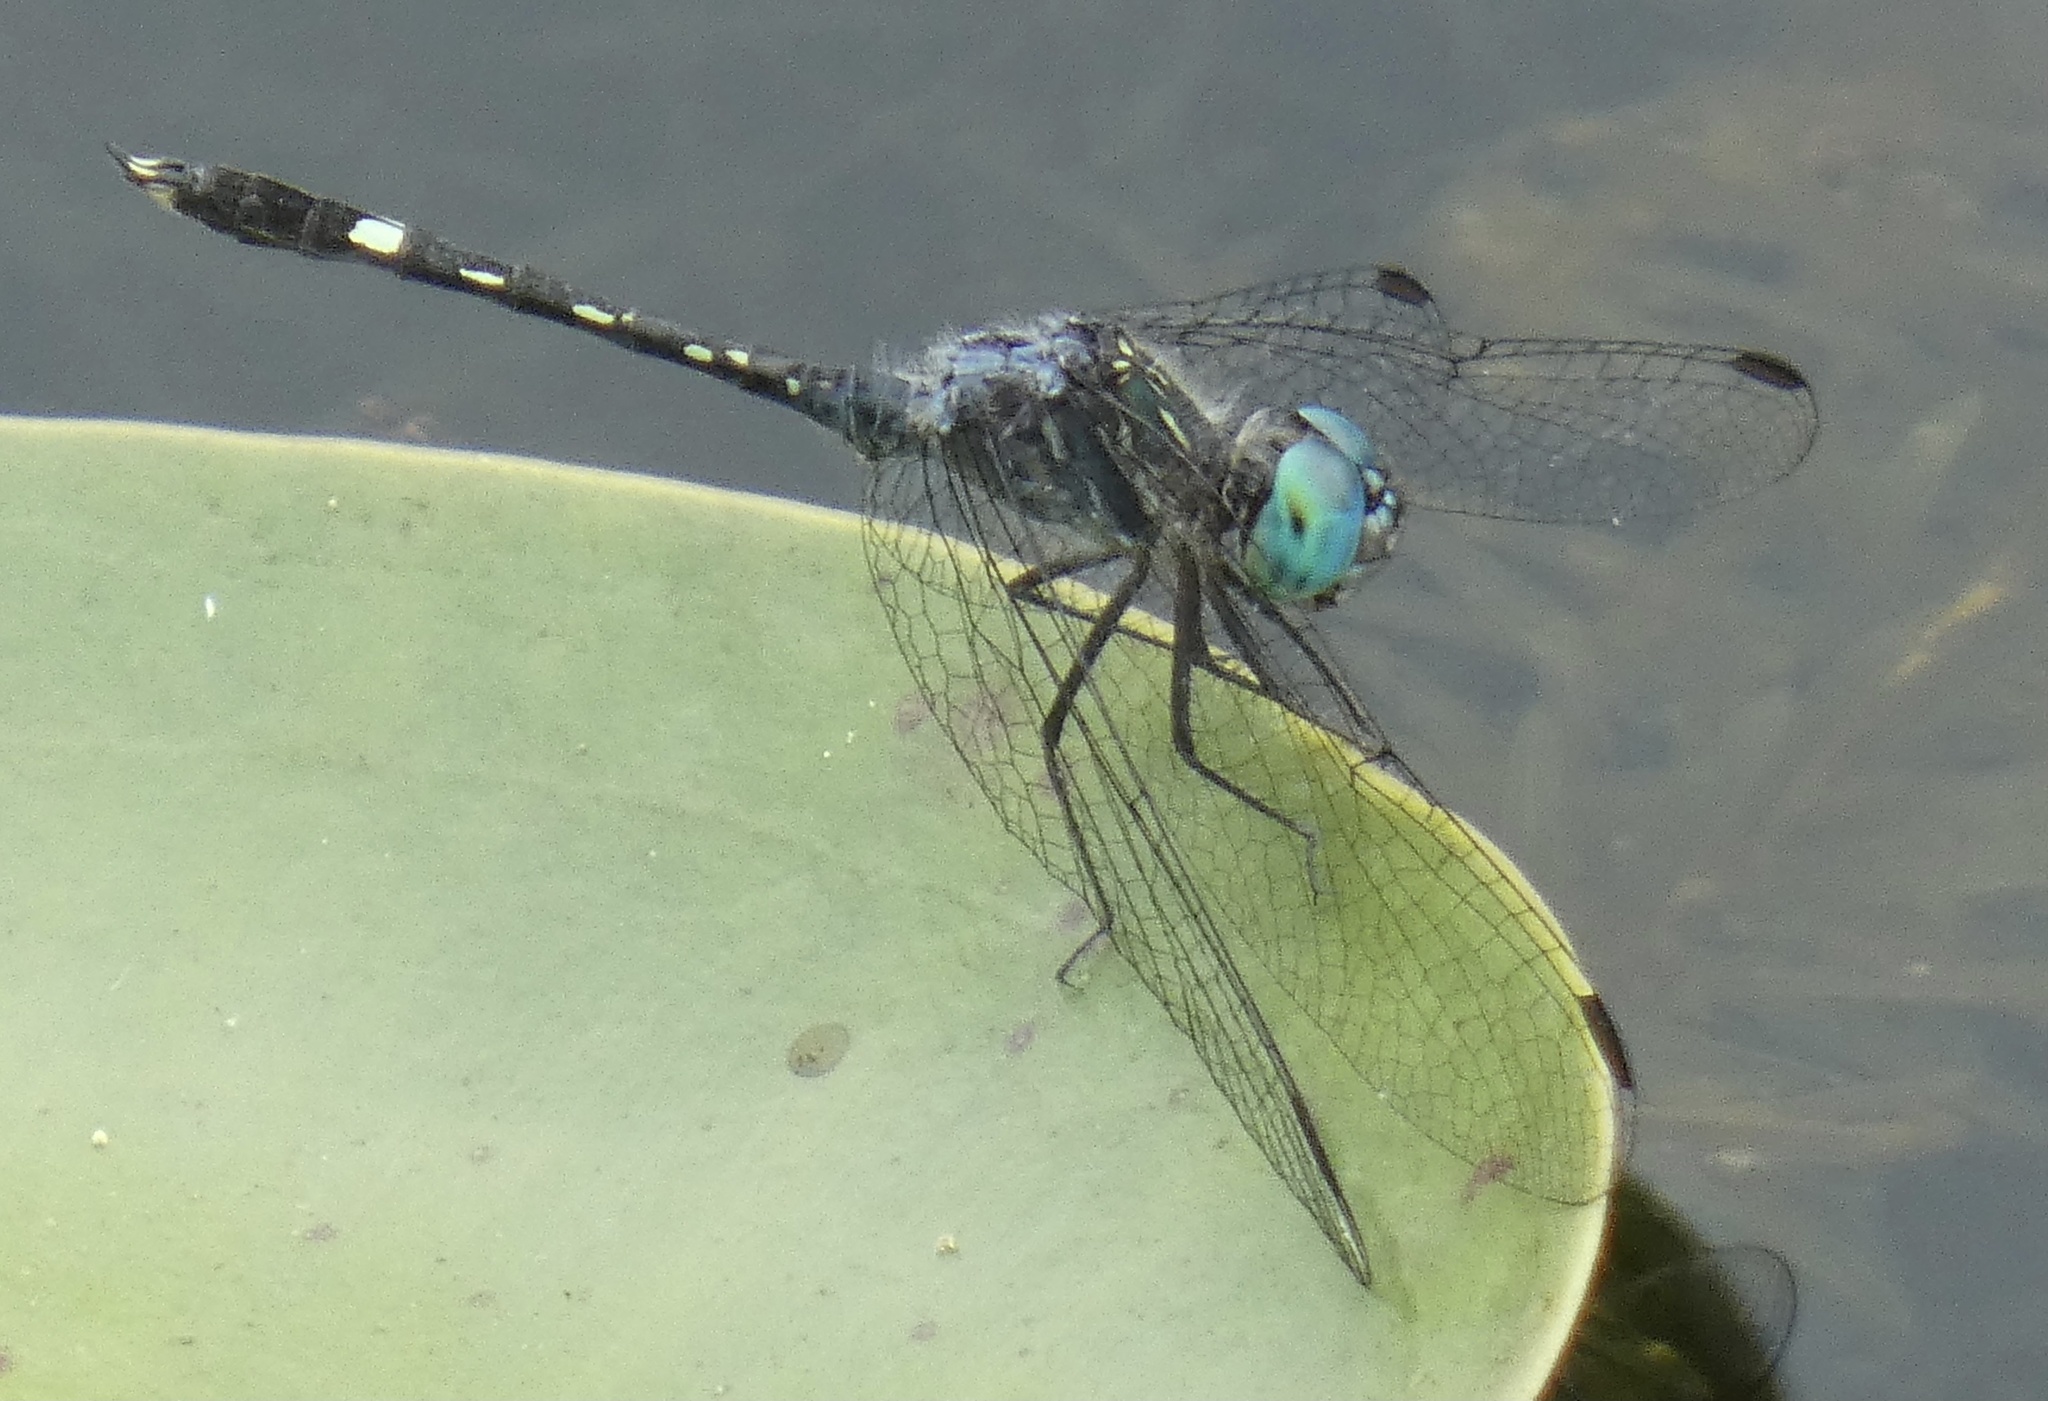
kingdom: Animalia
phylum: Arthropoda
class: Insecta
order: Odonata
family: Libellulidae
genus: Micrathyria
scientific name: Micrathyria hesperis
